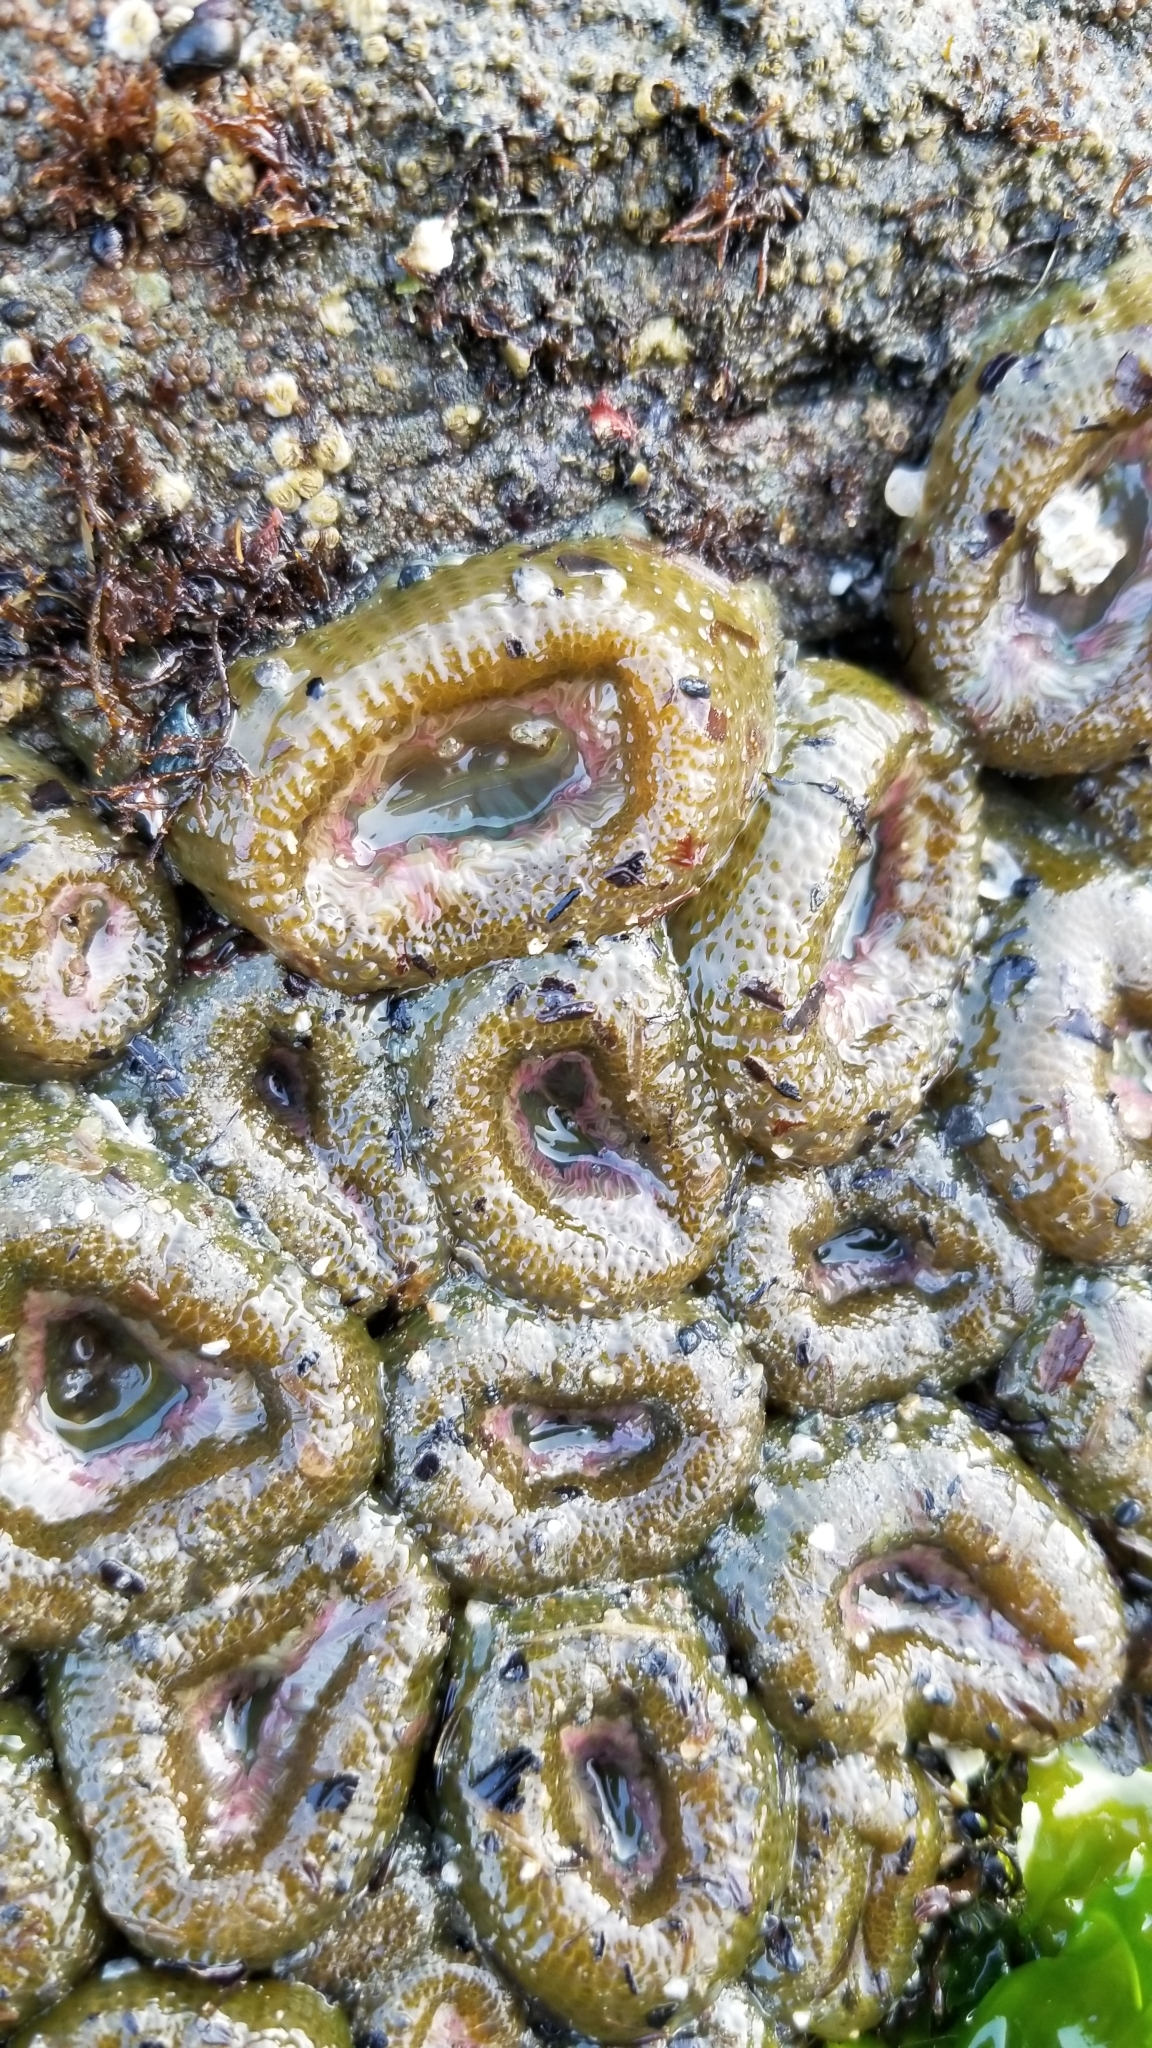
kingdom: Animalia
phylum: Cnidaria
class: Anthozoa
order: Actiniaria
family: Actiniidae
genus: Anthopleura
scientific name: Anthopleura elegantissima
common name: Clonal anemone
